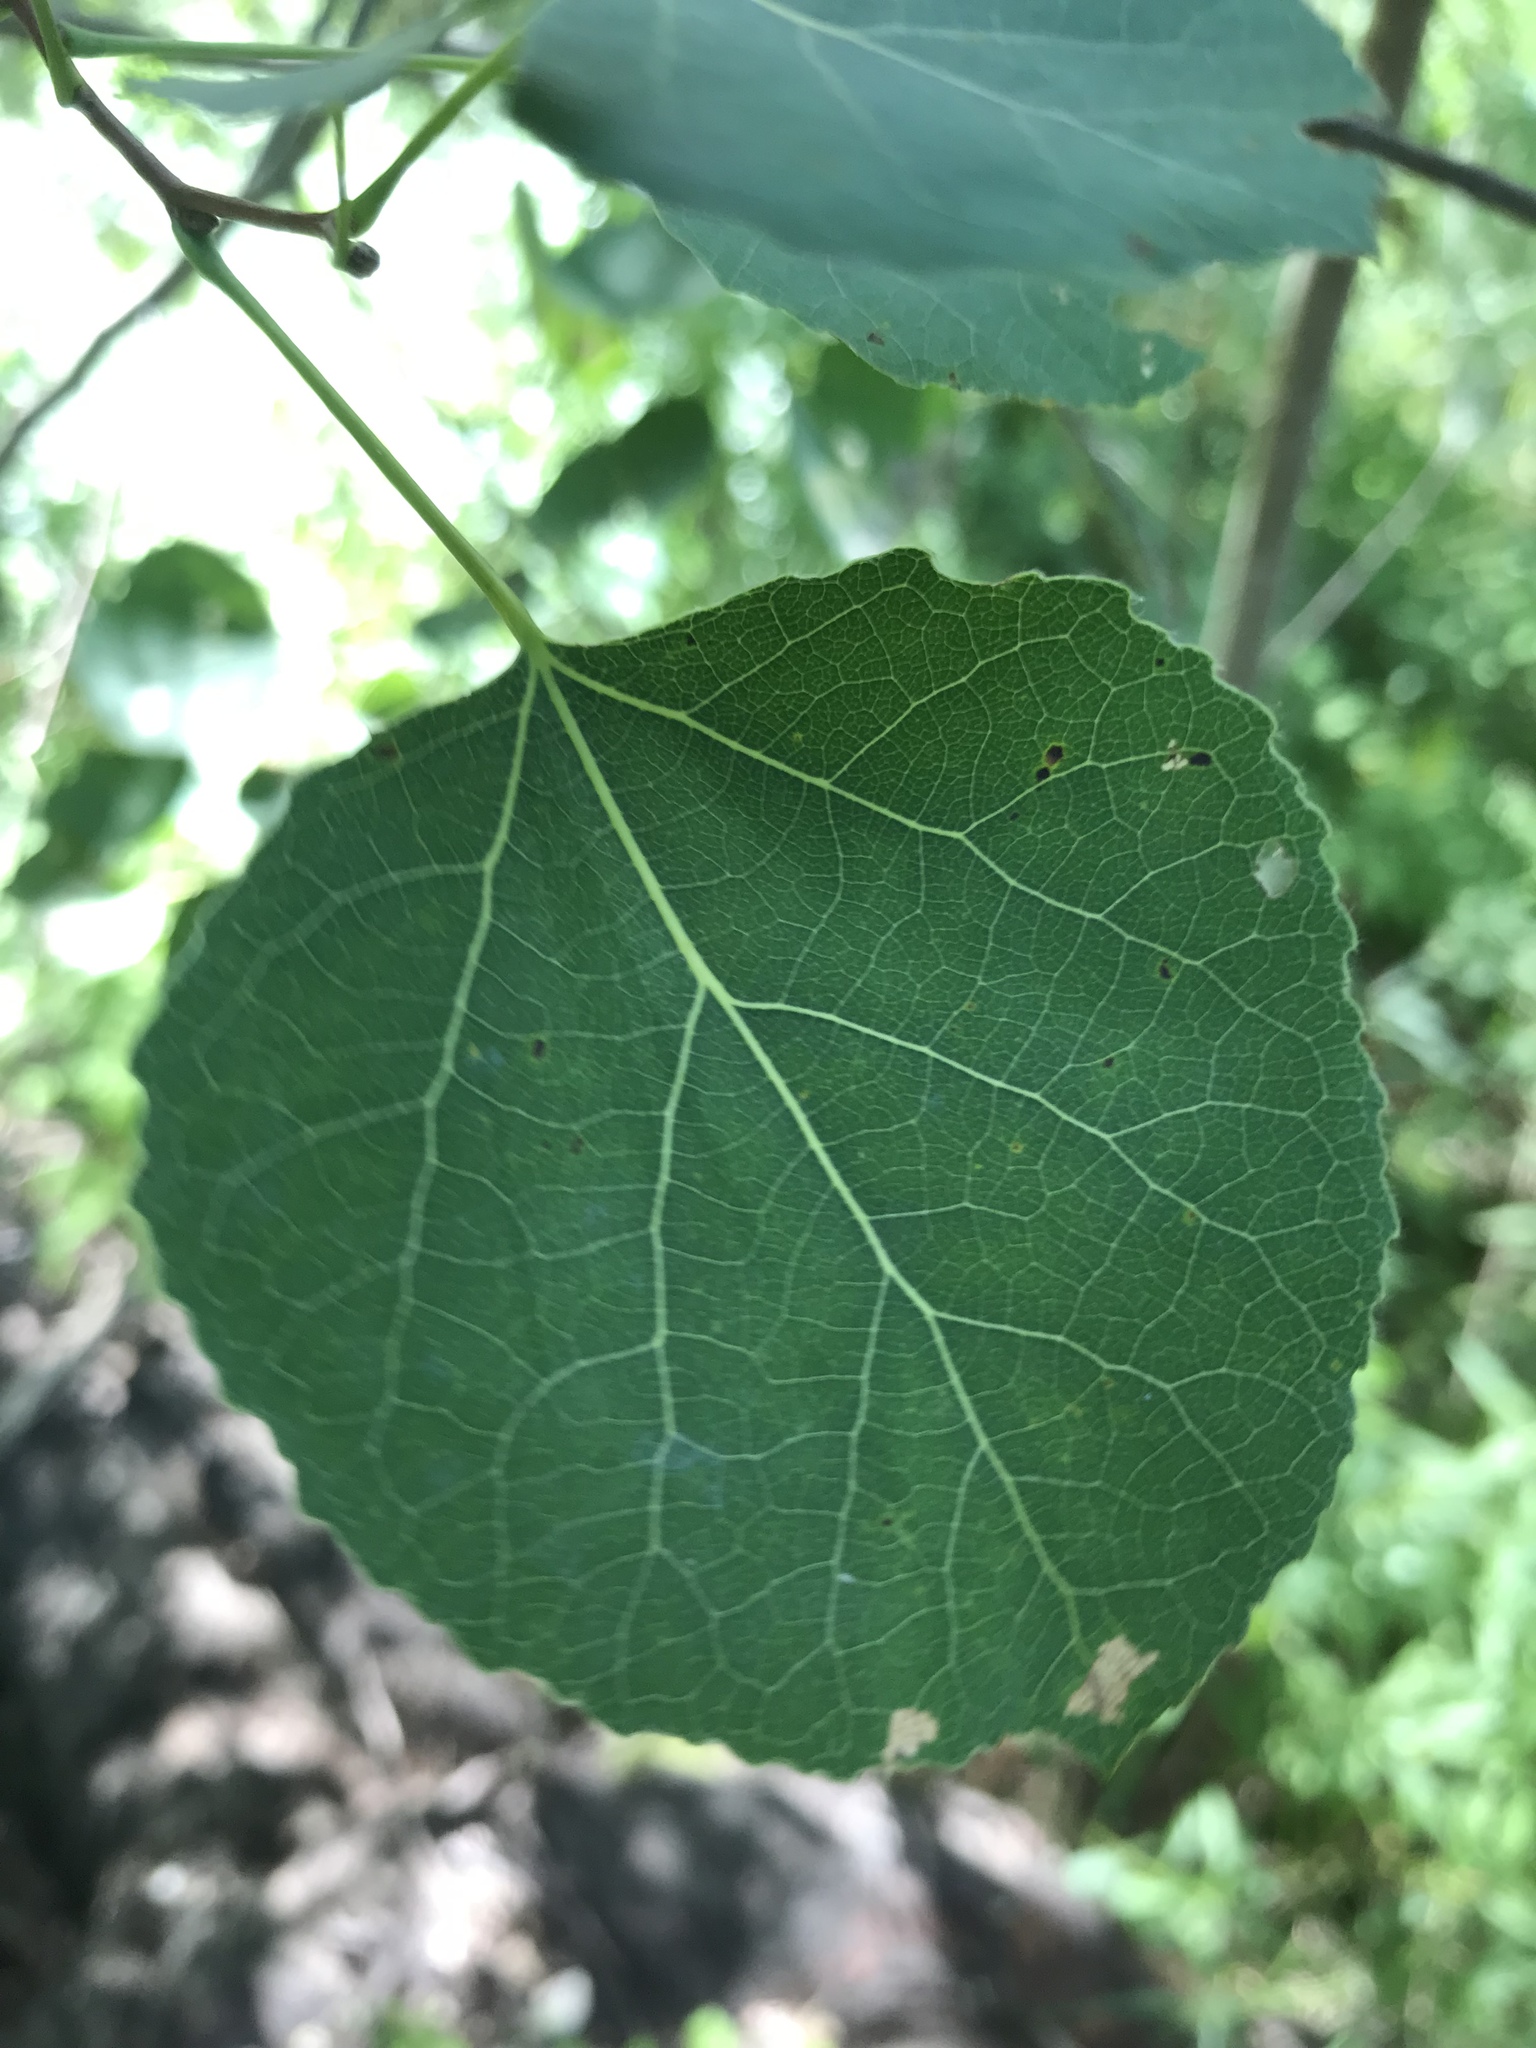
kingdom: Plantae
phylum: Tracheophyta
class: Magnoliopsida
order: Malpighiales
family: Salicaceae
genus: Populus
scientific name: Populus tremuloides
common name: Quaking aspen
